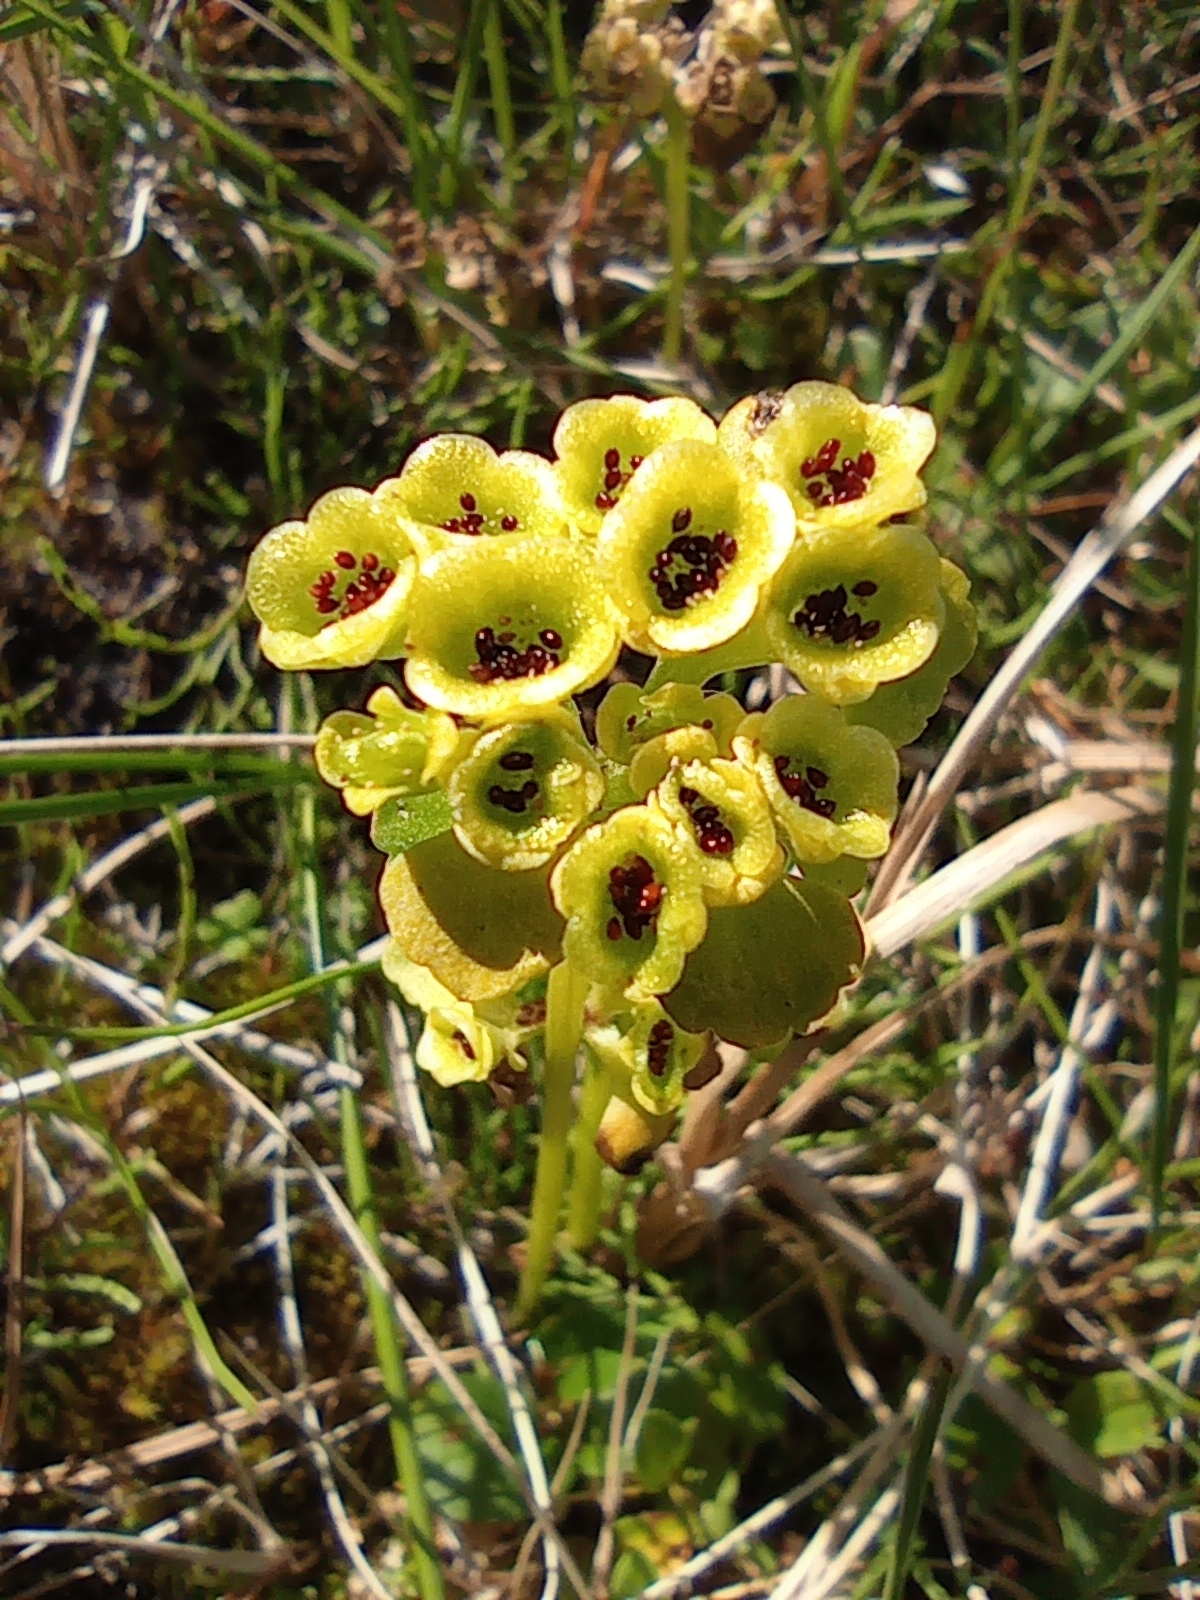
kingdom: Plantae
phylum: Tracheophyta
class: Magnoliopsida
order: Saxifragales
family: Saxifragaceae
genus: Chrysosplenium
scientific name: Chrysosplenium tetrandrum
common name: Green saxifrage
